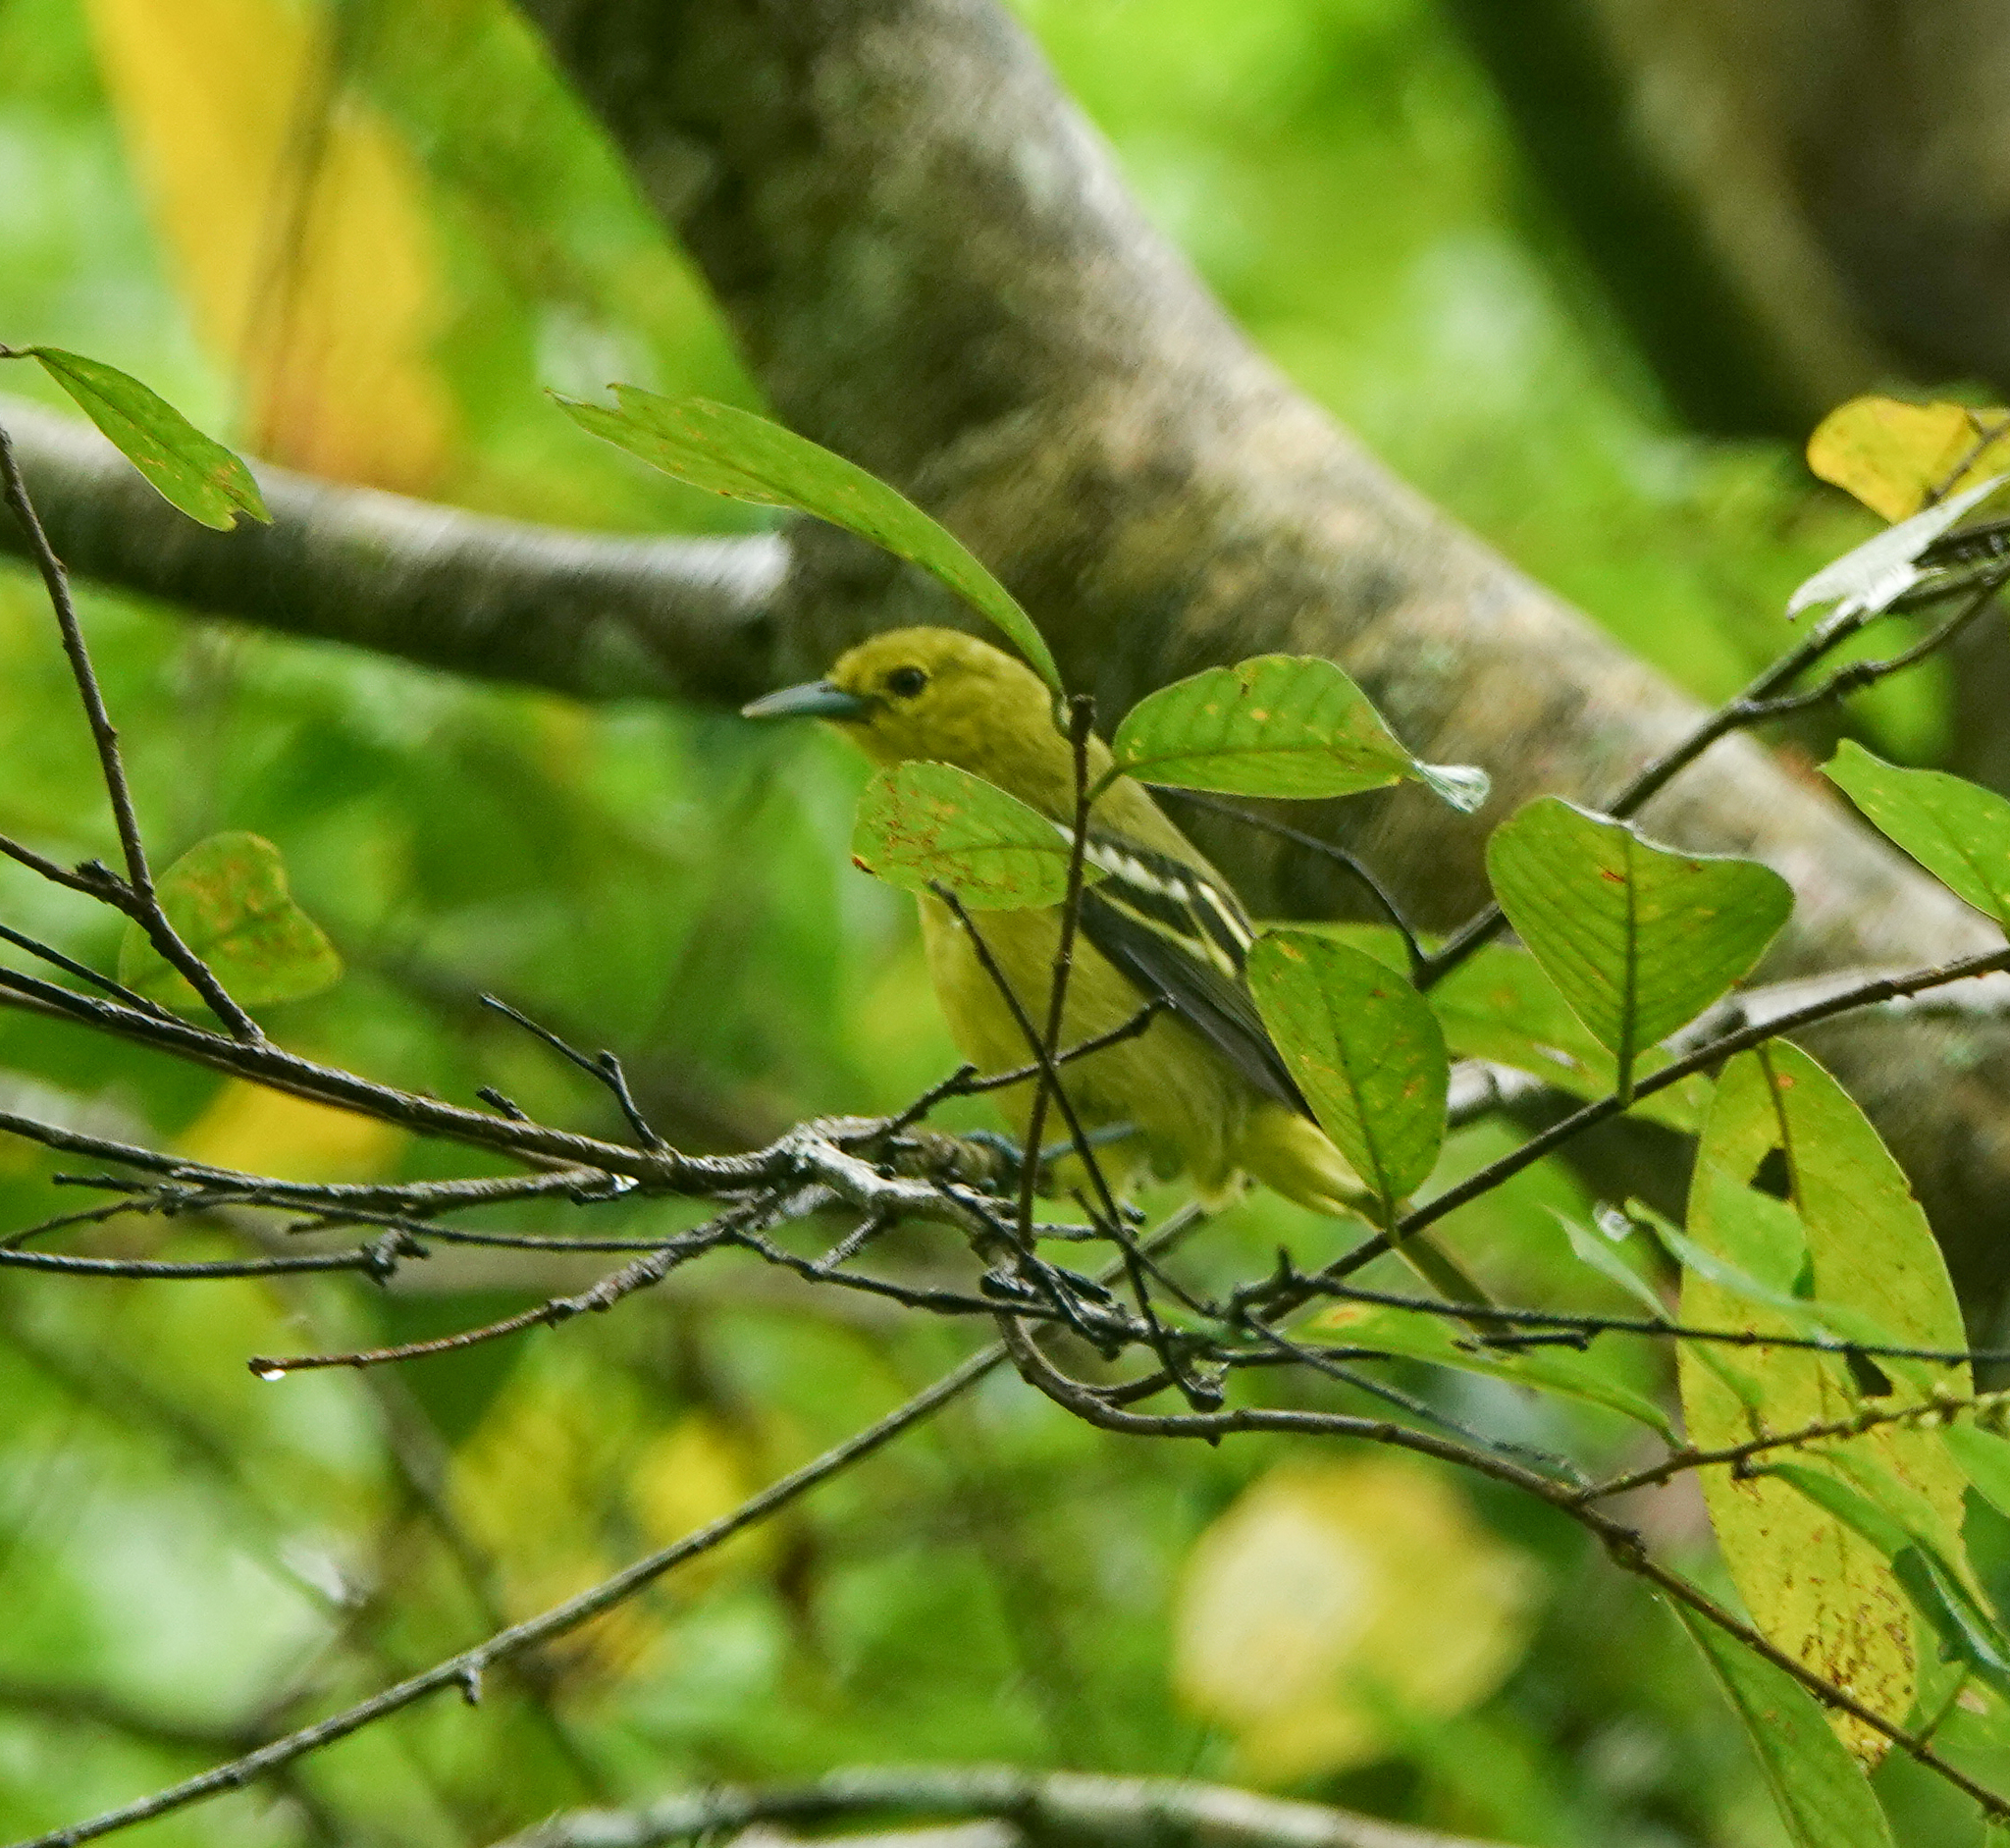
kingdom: Animalia
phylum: Chordata
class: Aves
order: Passeriformes
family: Aegithinidae
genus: Aegithina
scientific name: Aegithina tiphia
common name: Common iora
